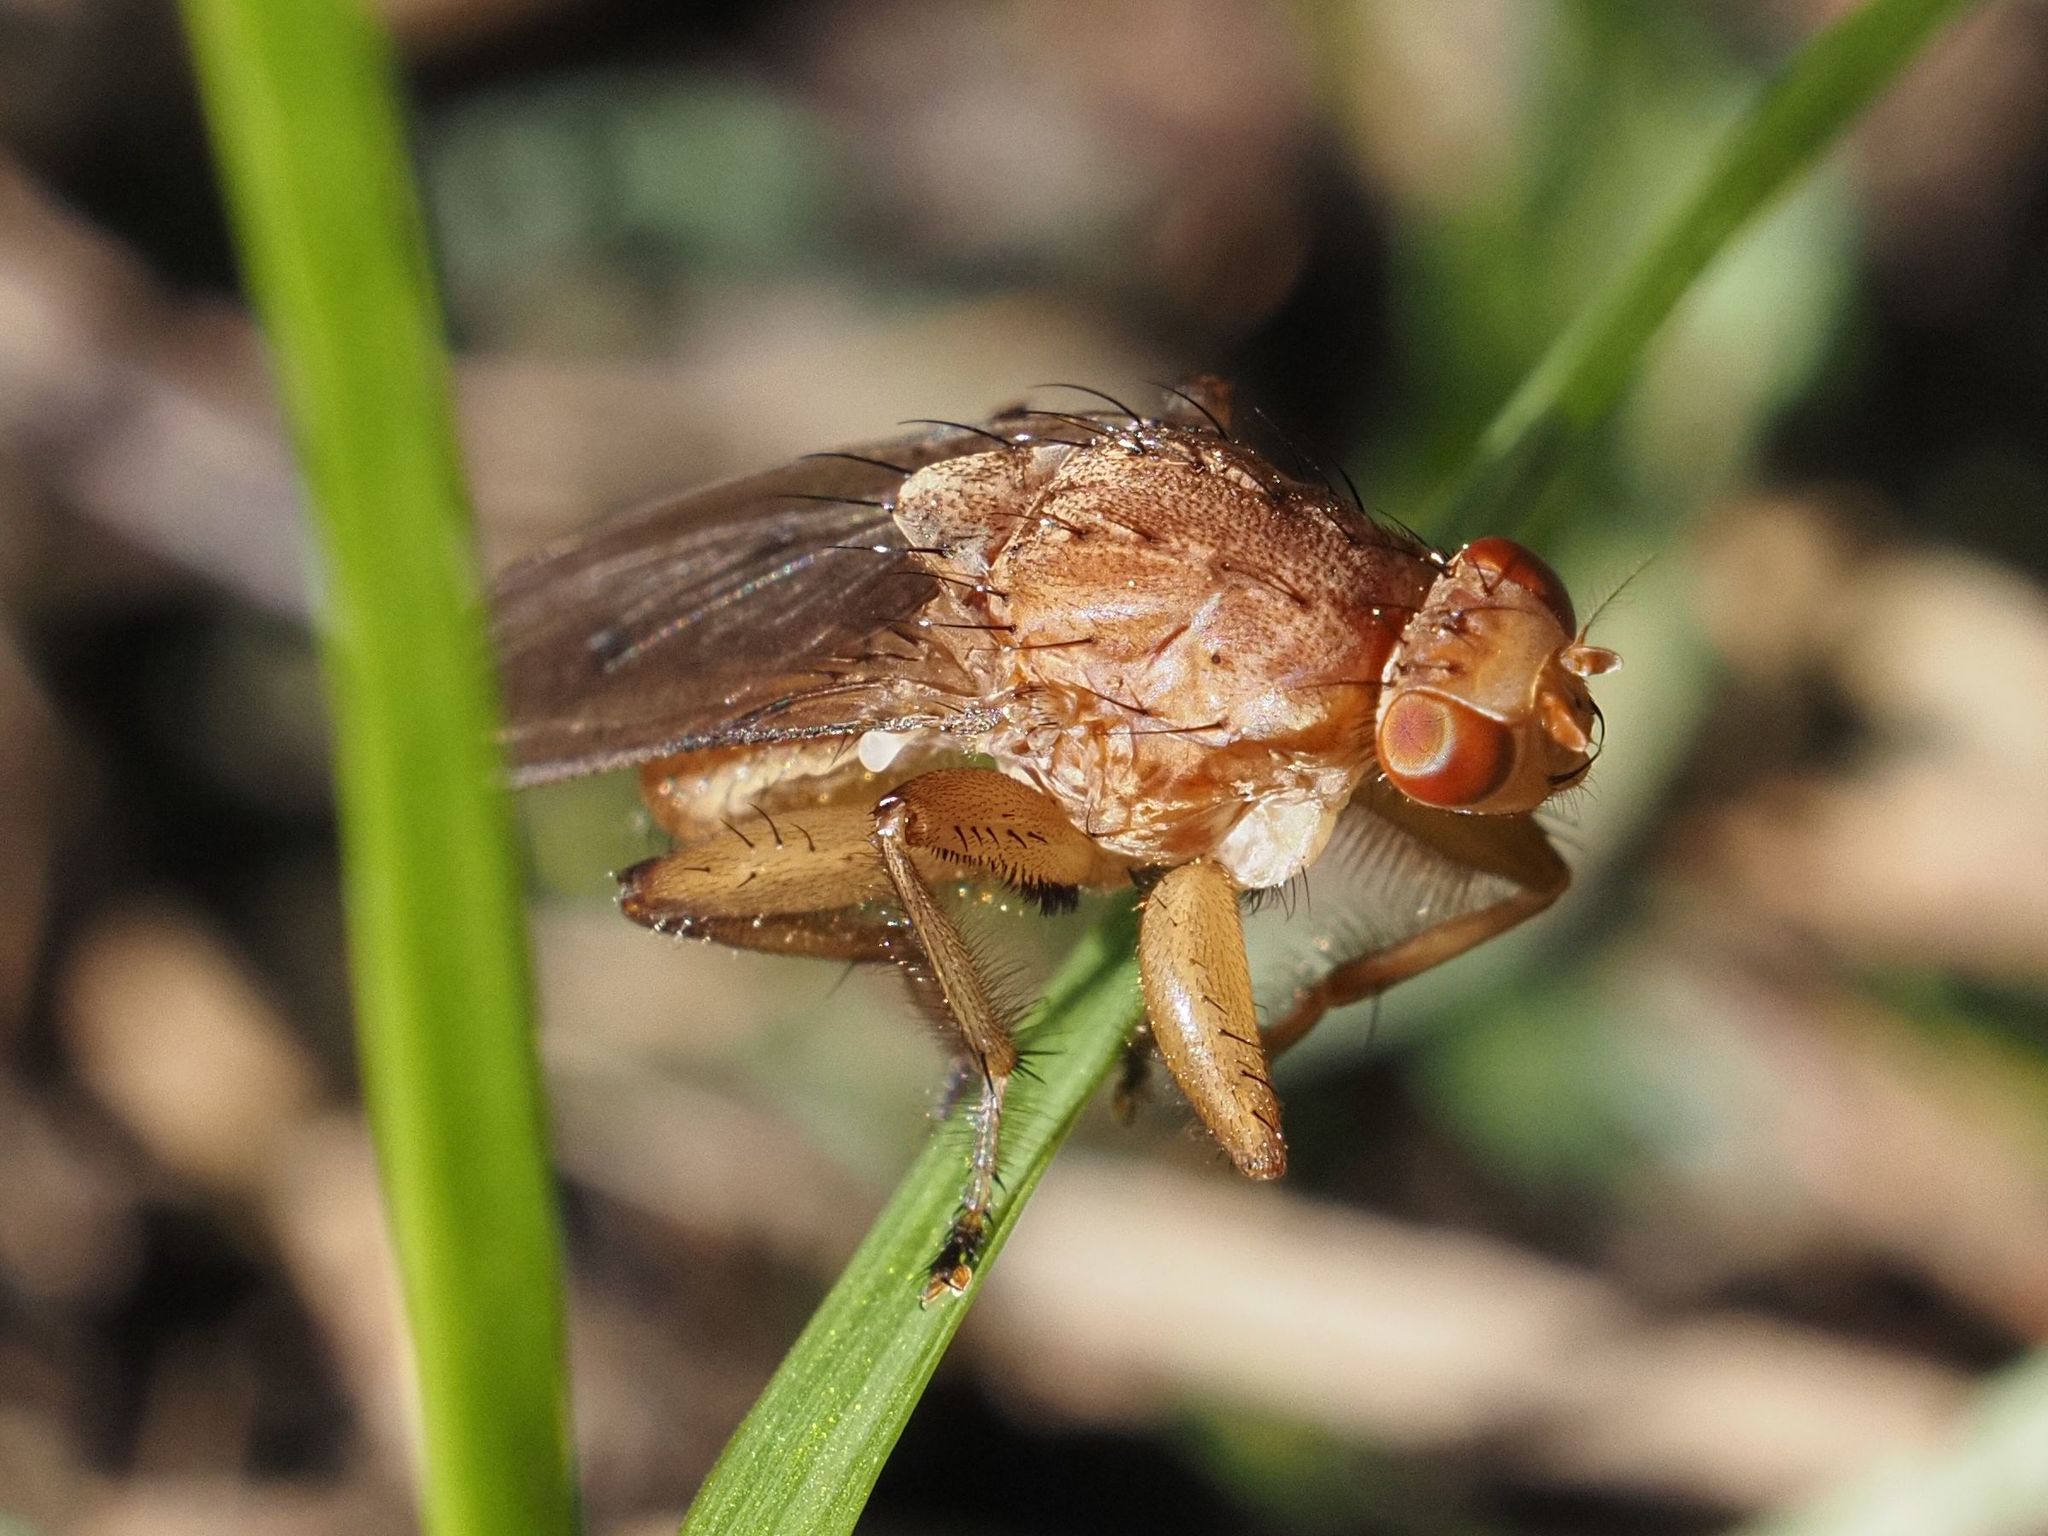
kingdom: Animalia
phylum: Arthropoda
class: Insecta
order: Diptera
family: Heleomyzidae
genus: Suillia
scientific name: Suillia gigantea
